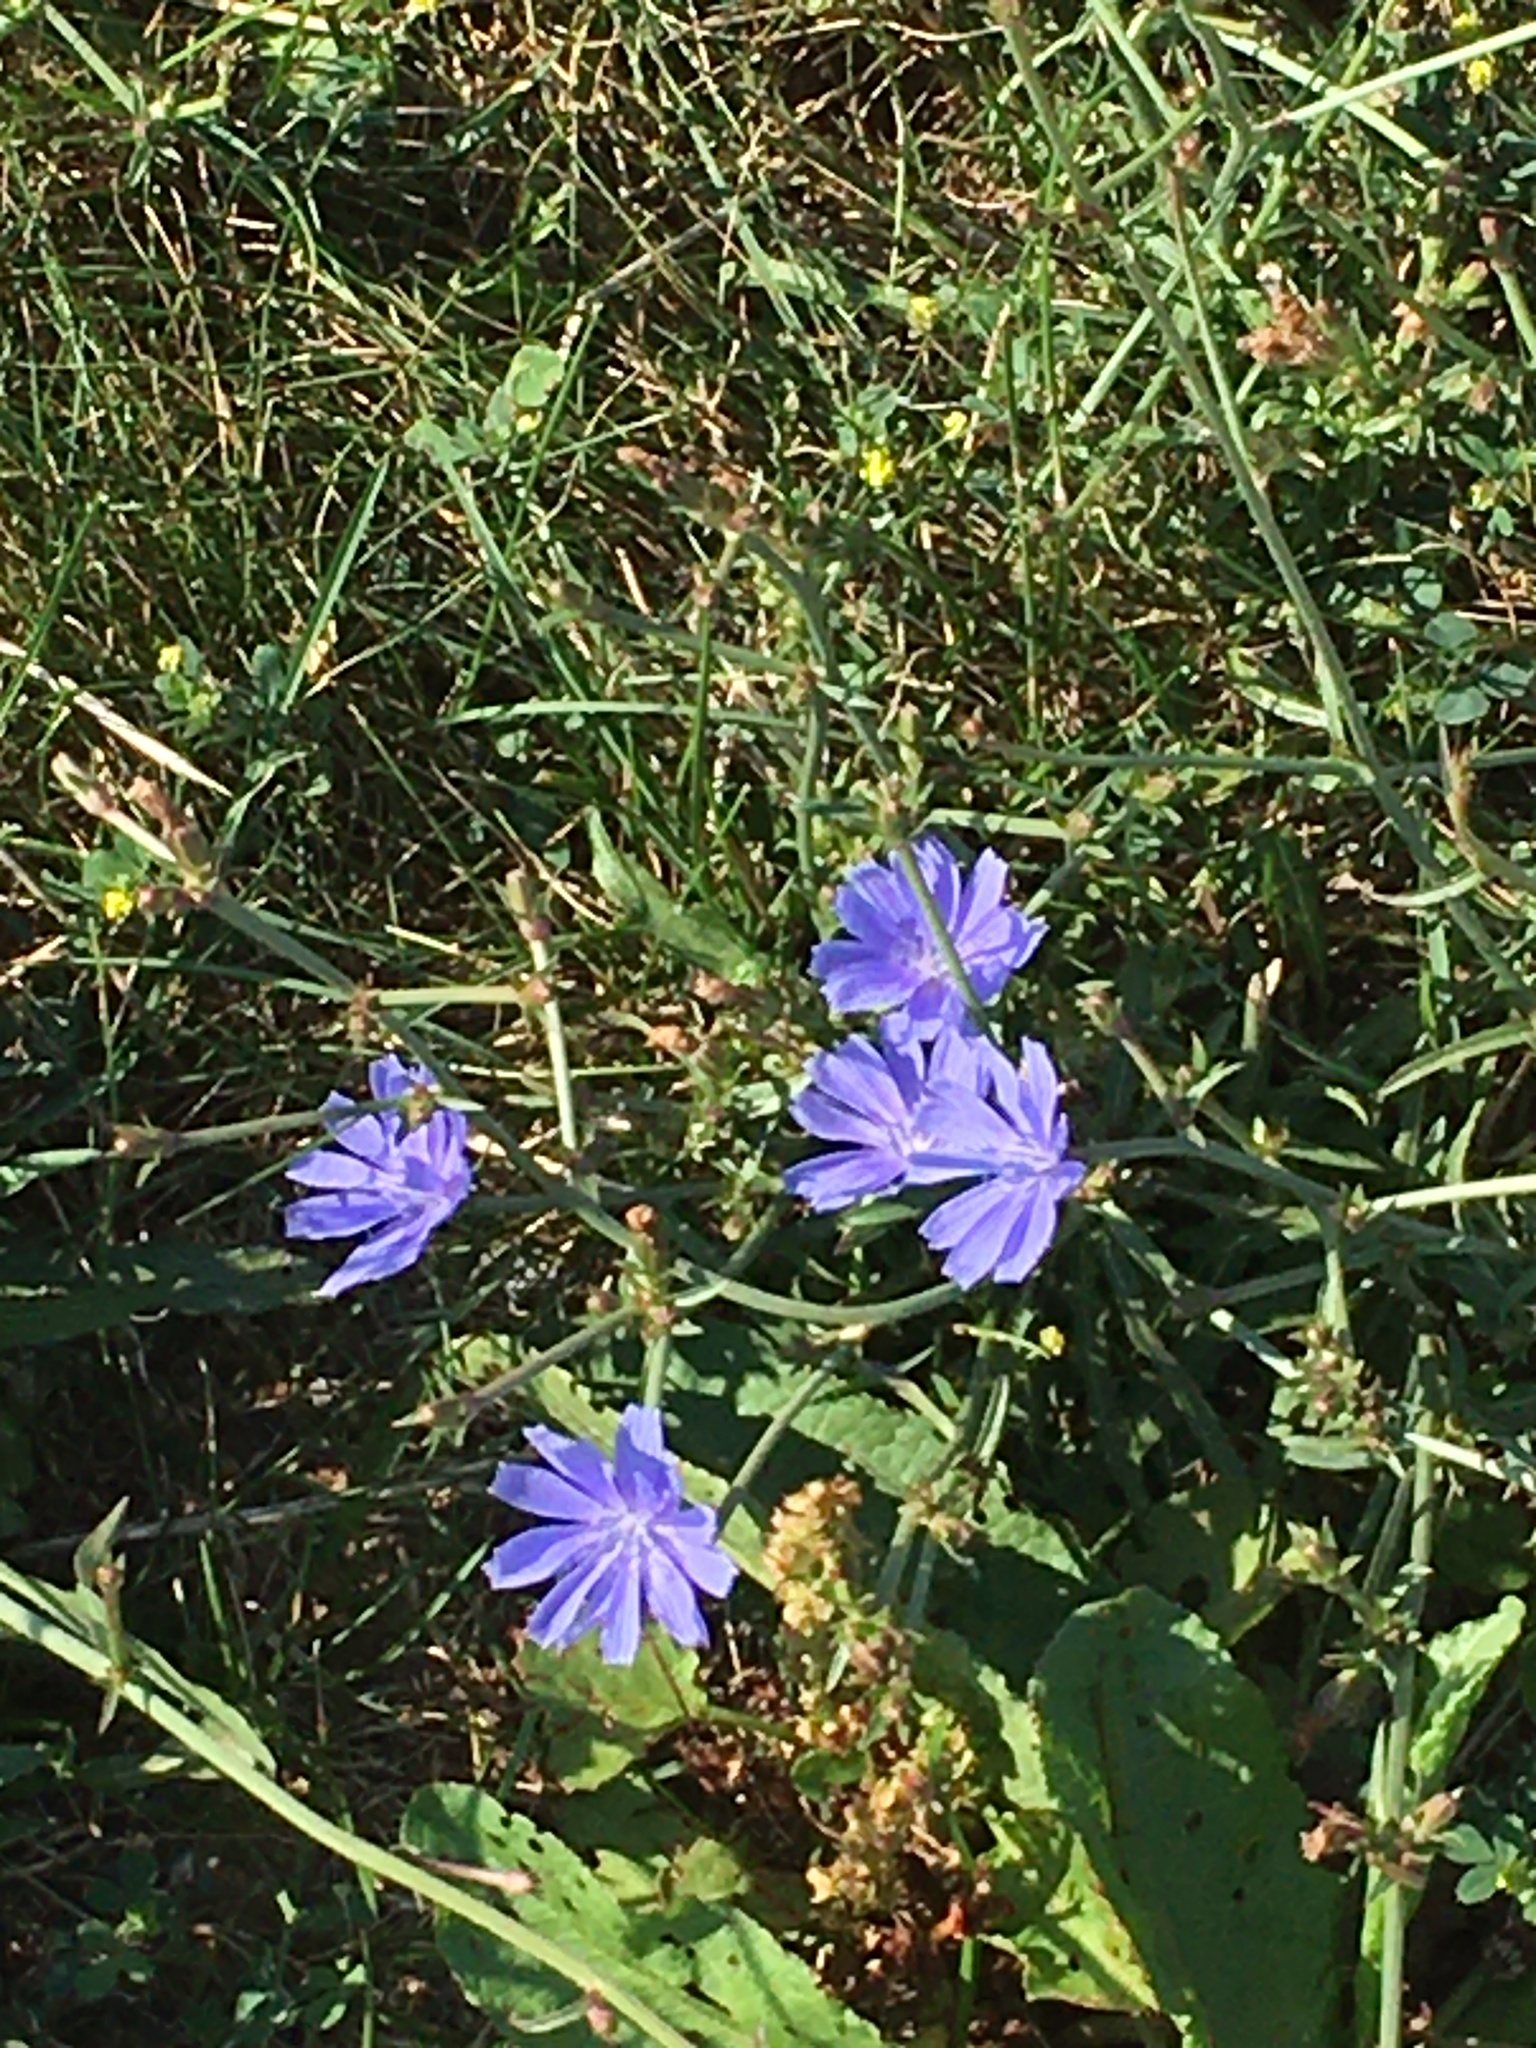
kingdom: Plantae
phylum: Tracheophyta
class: Magnoliopsida
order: Asterales
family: Asteraceae
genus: Cichorium
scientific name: Cichorium intybus
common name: Chicory
